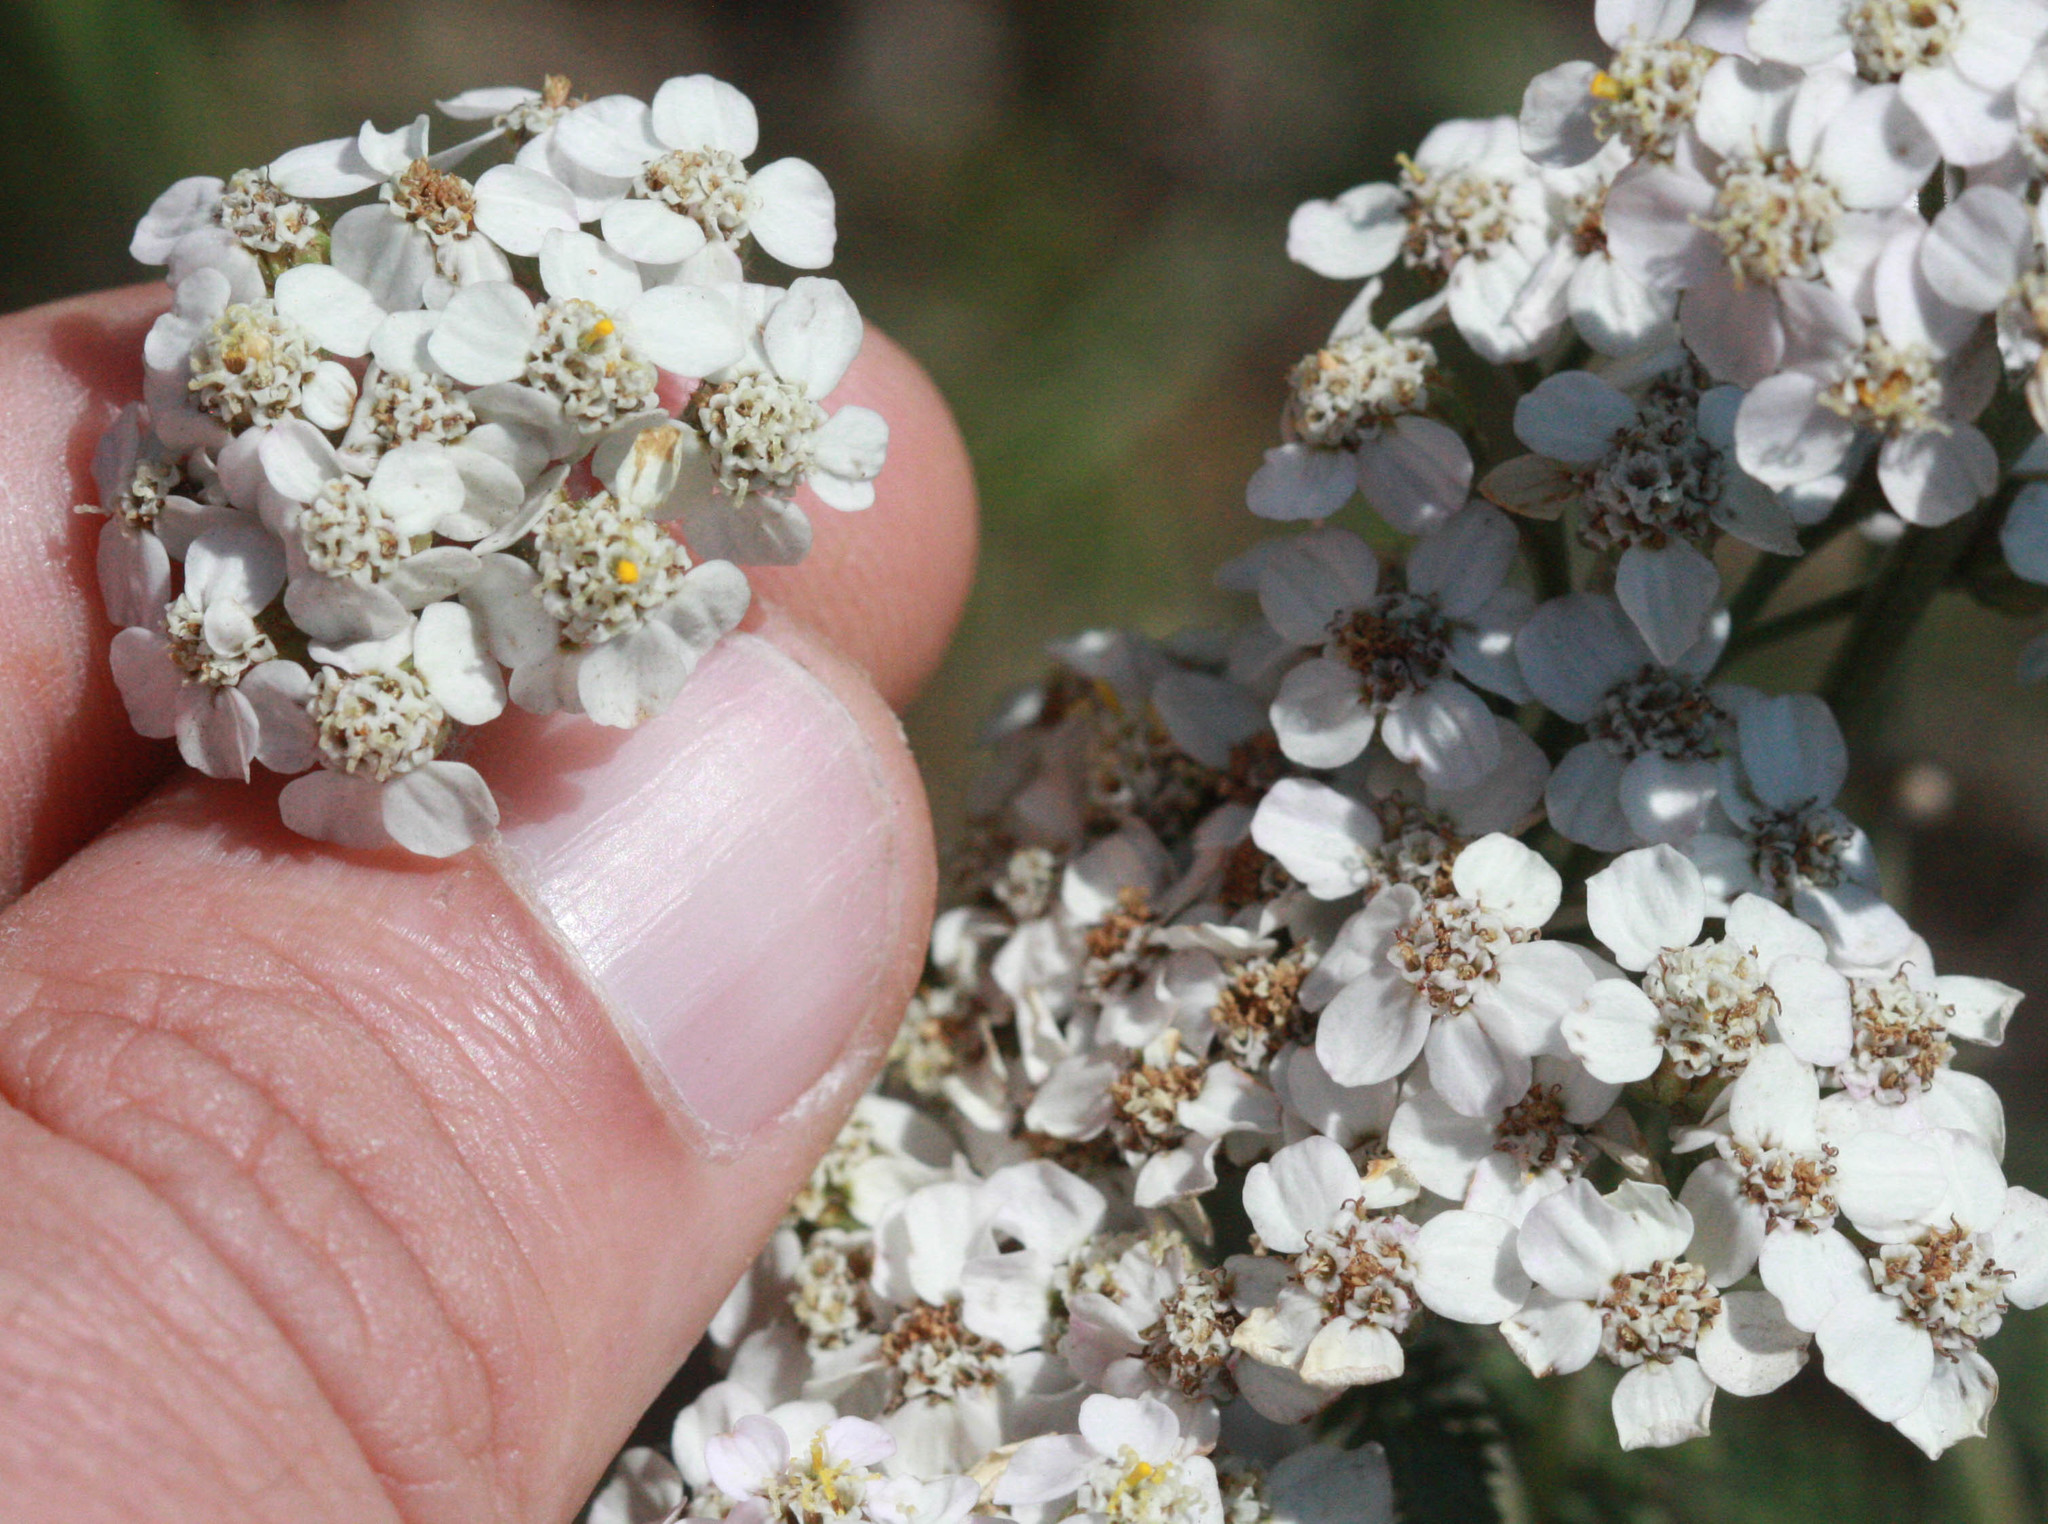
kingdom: Plantae
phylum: Tracheophyta
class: Magnoliopsida
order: Asterales
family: Asteraceae
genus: Achillea
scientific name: Achillea millefolium
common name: Yarrow
